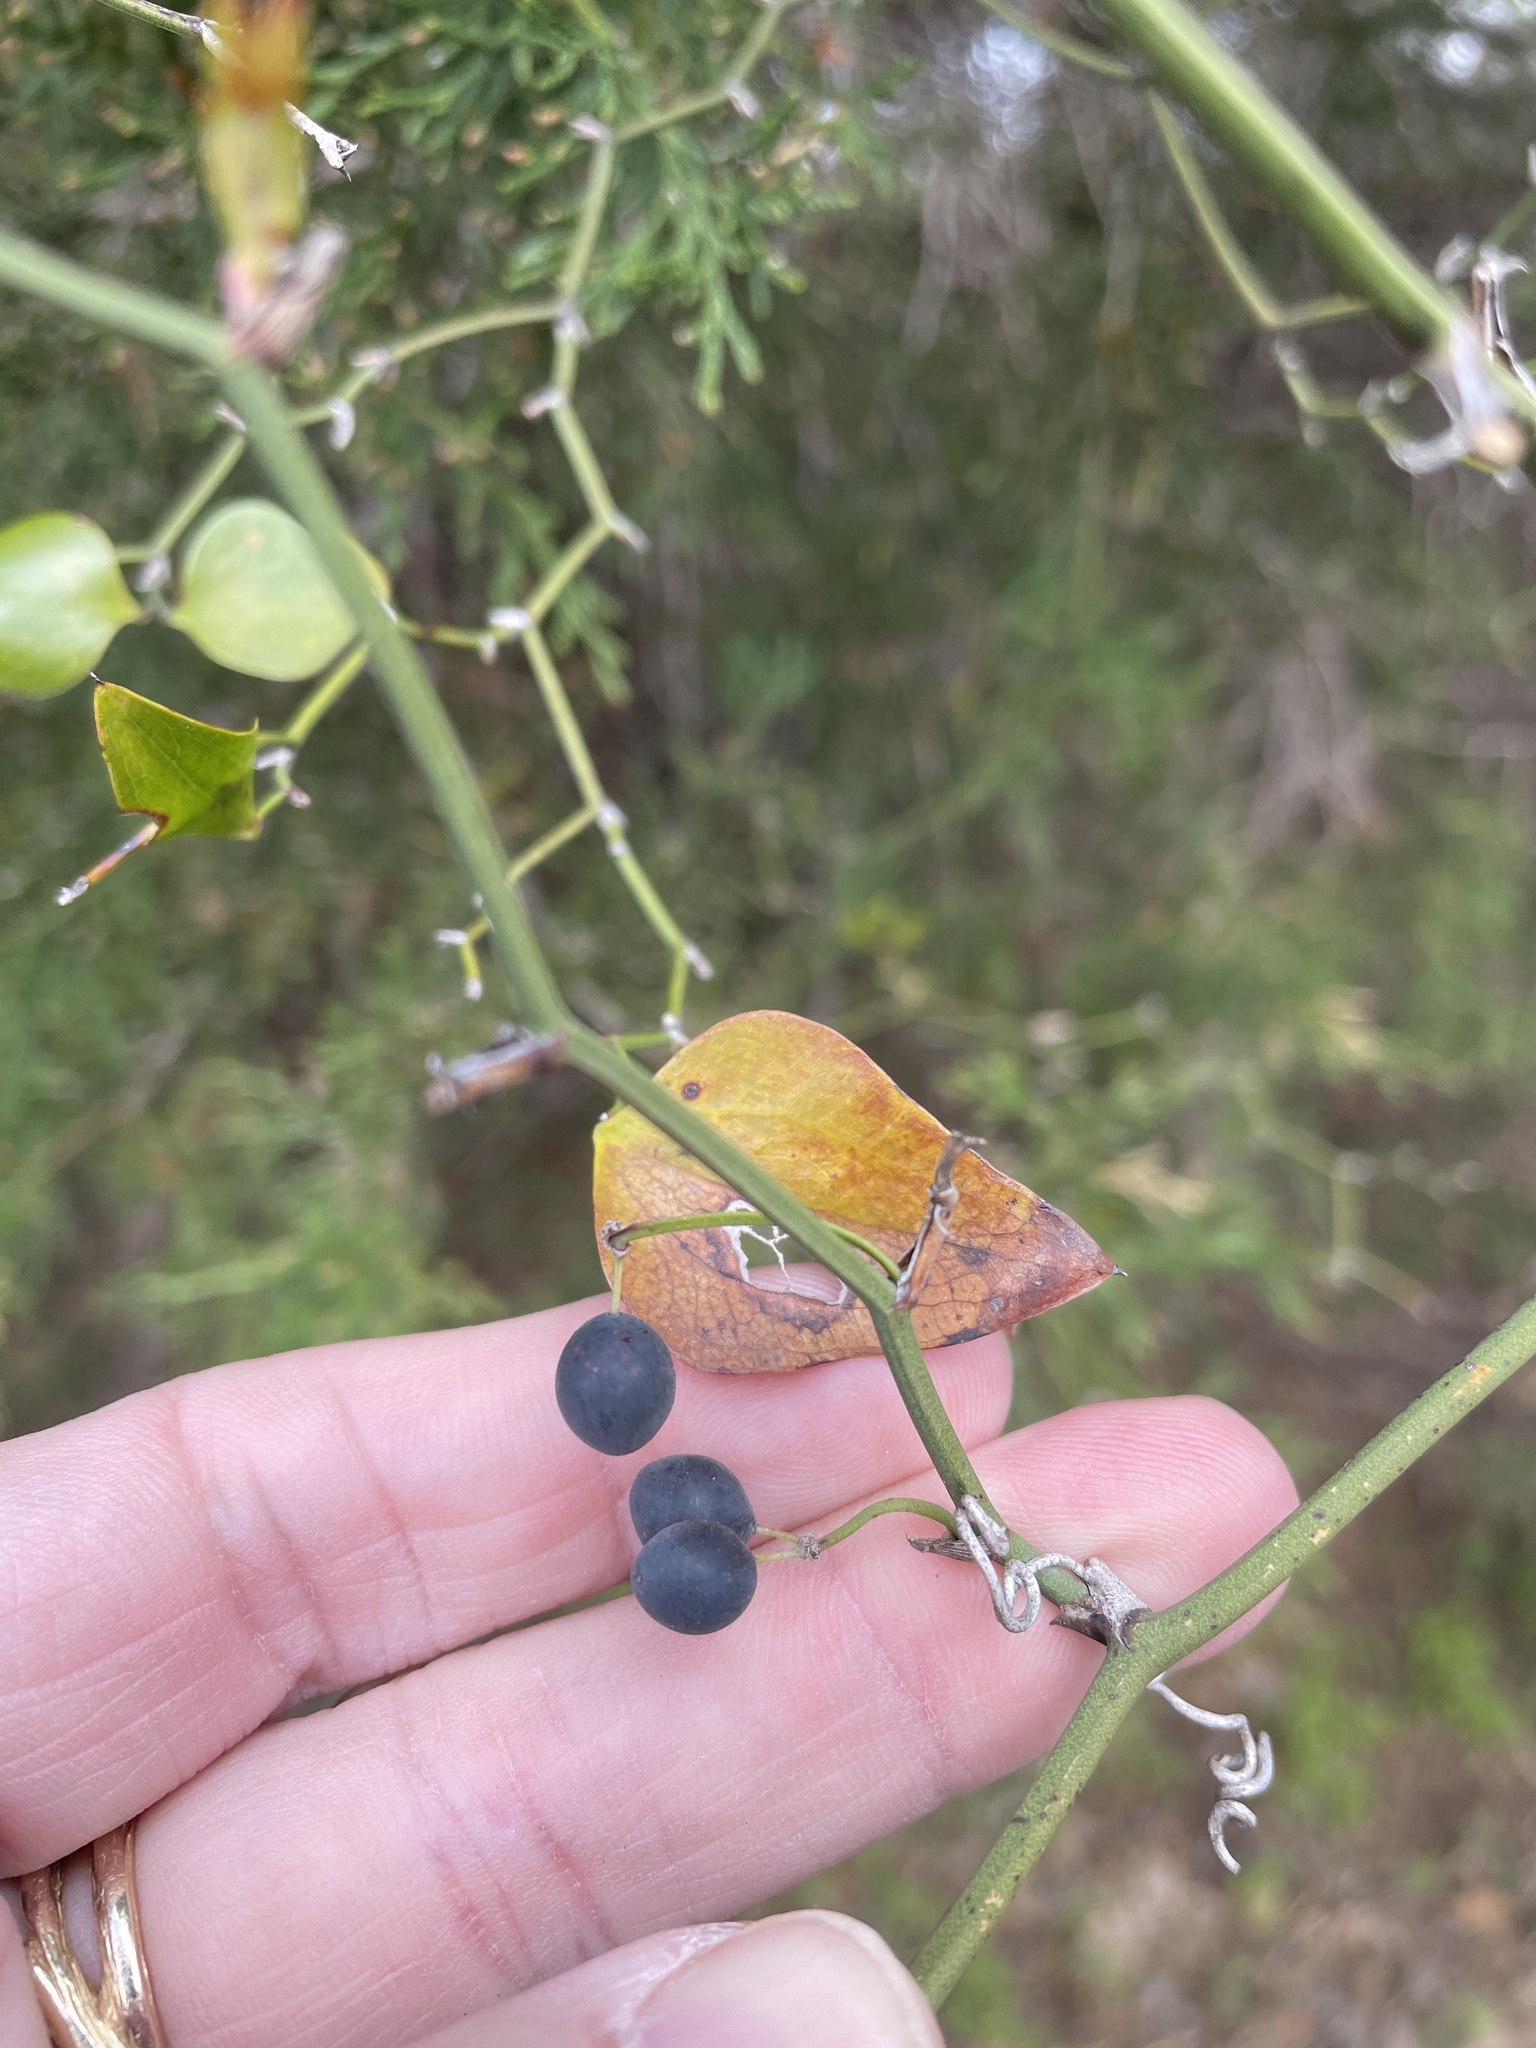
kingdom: Plantae
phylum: Tracheophyta
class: Liliopsida
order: Liliales
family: Smilacaceae
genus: Smilax
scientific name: Smilax bona-nox
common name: Catbrier
